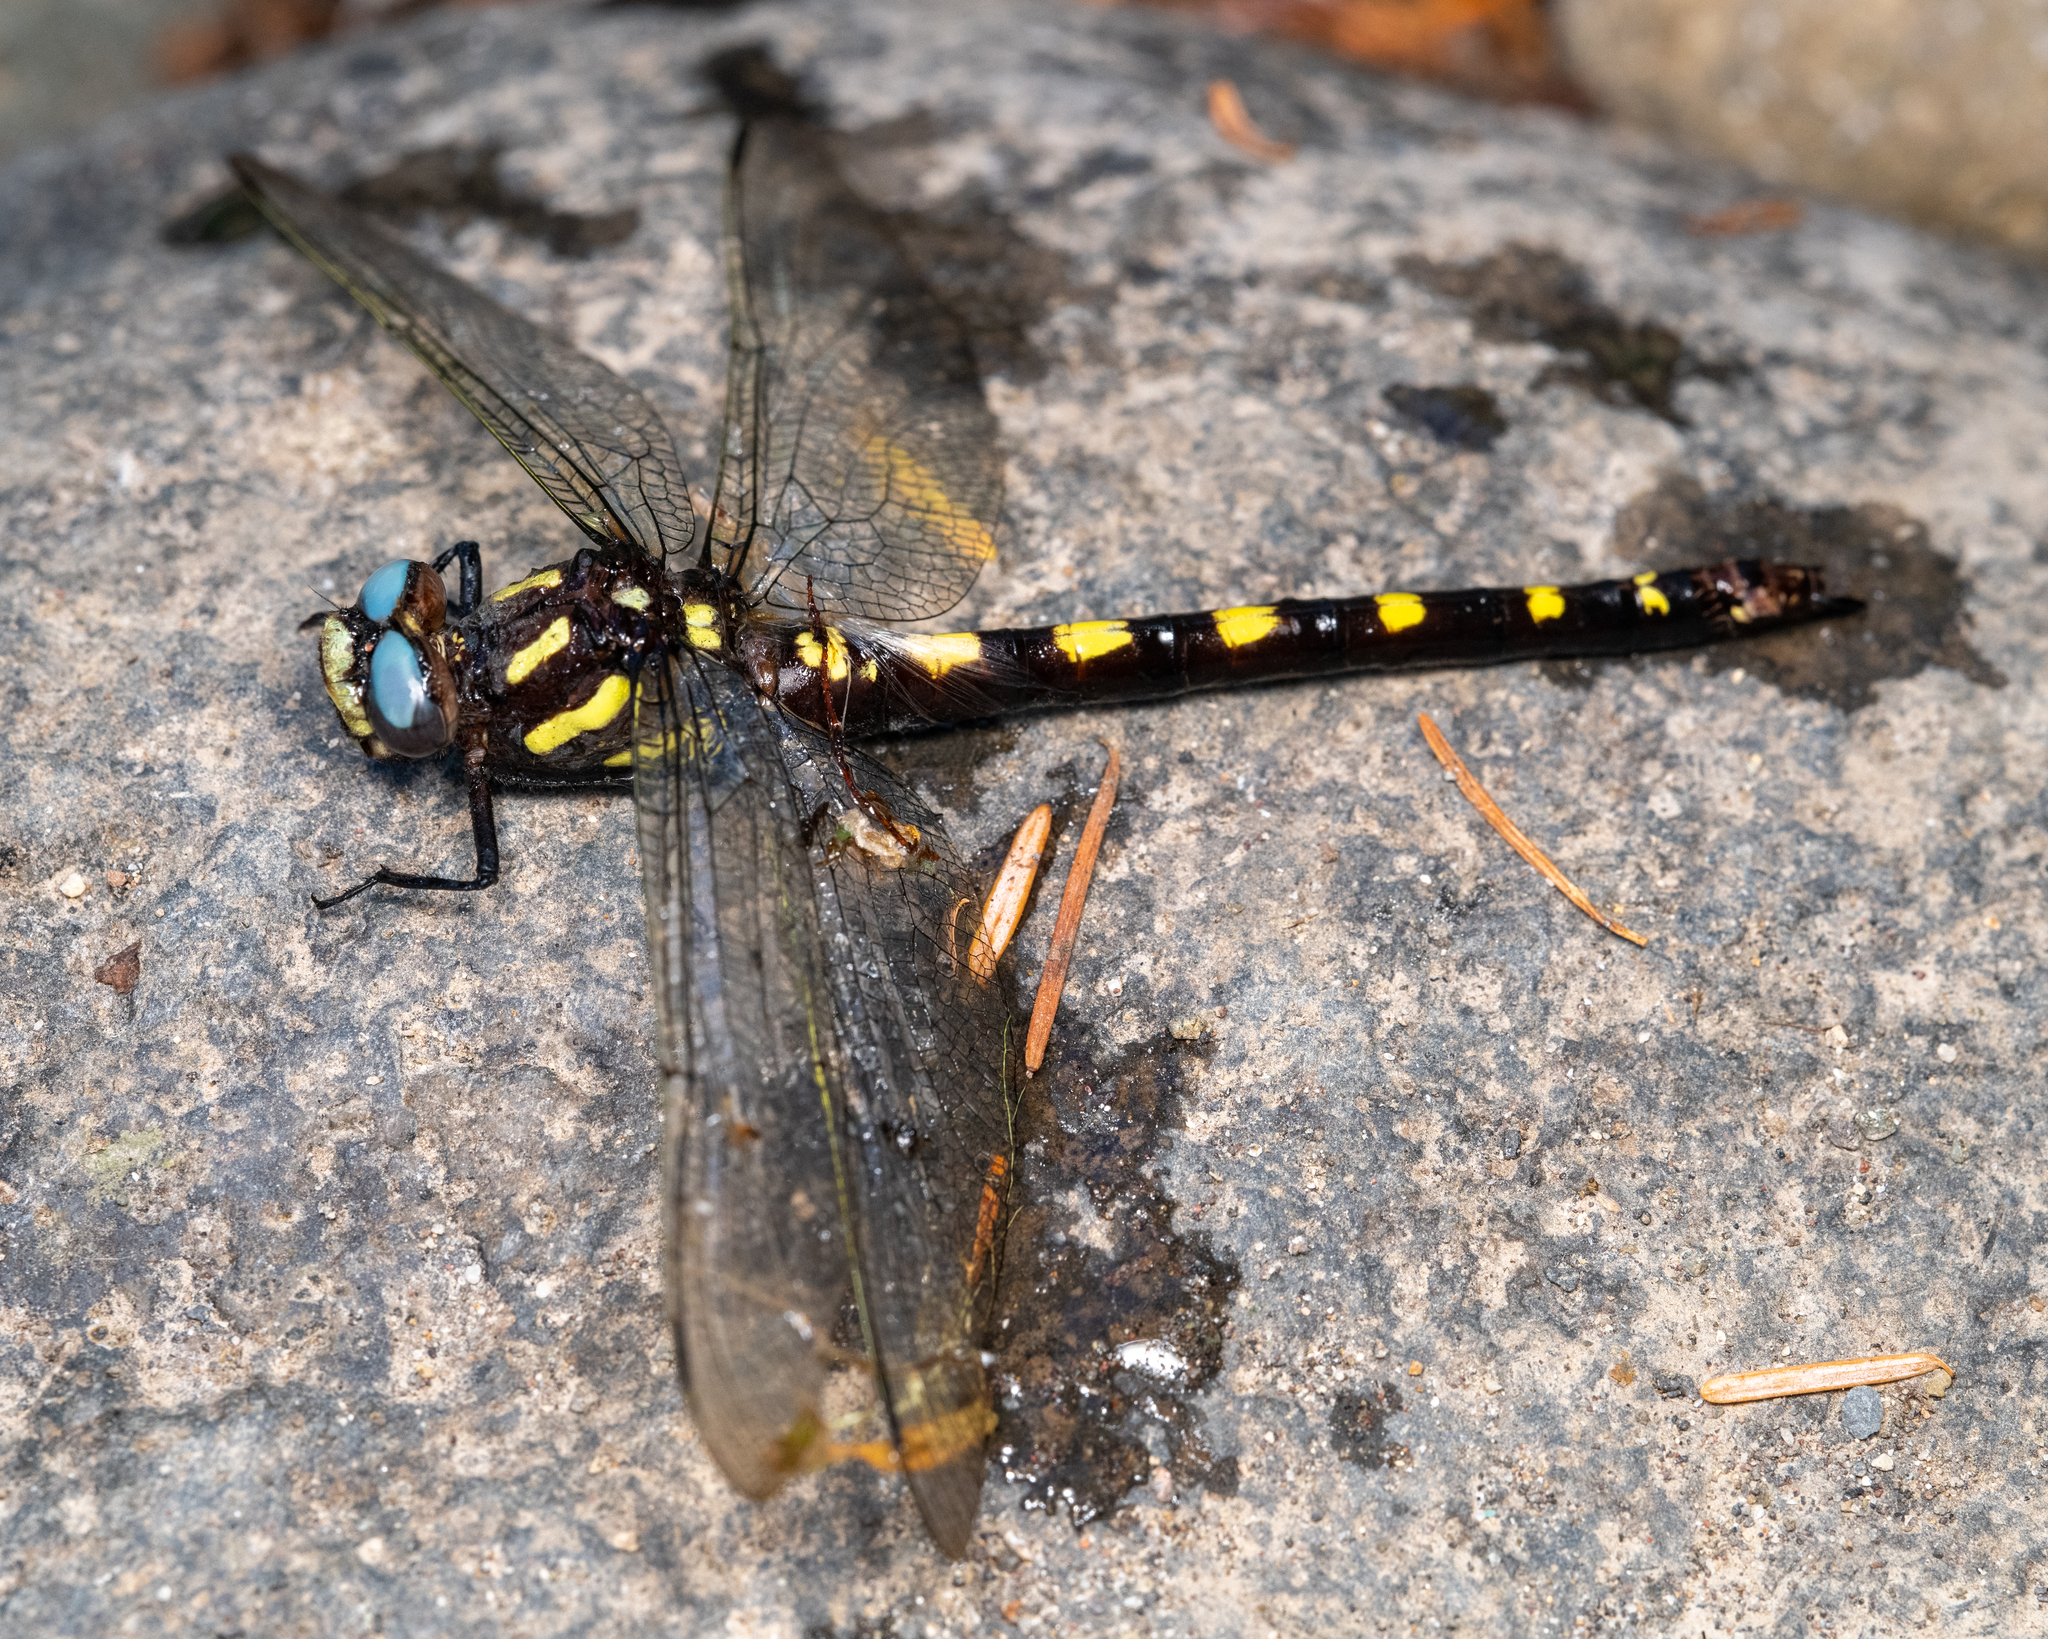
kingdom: Animalia
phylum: Arthropoda
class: Insecta
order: Odonata
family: Cordulegastridae
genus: Cordulegaster
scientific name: Cordulegaster dorsalis
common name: Pacific spiketail
